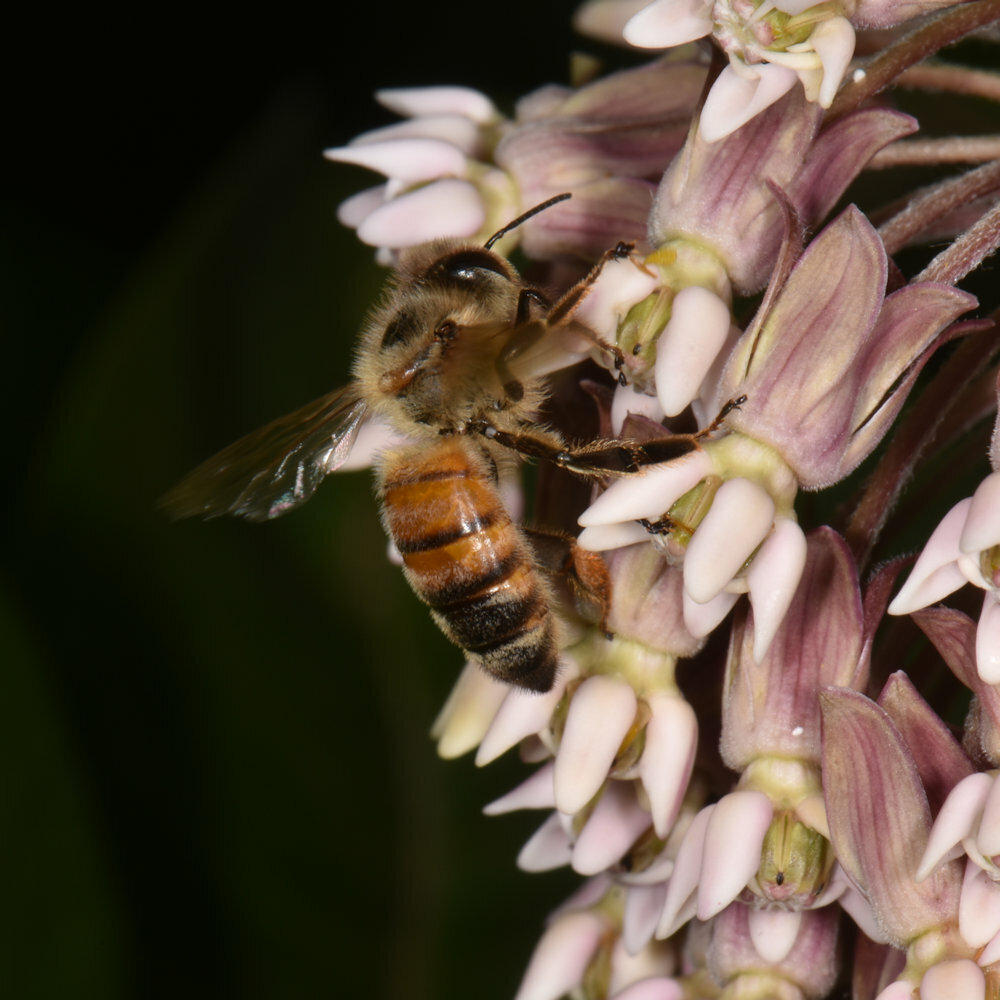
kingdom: Animalia
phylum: Arthropoda
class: Insecta
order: Hymenoptera
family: Apidae
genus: Apis
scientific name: Apis mellifera
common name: Honey bee
